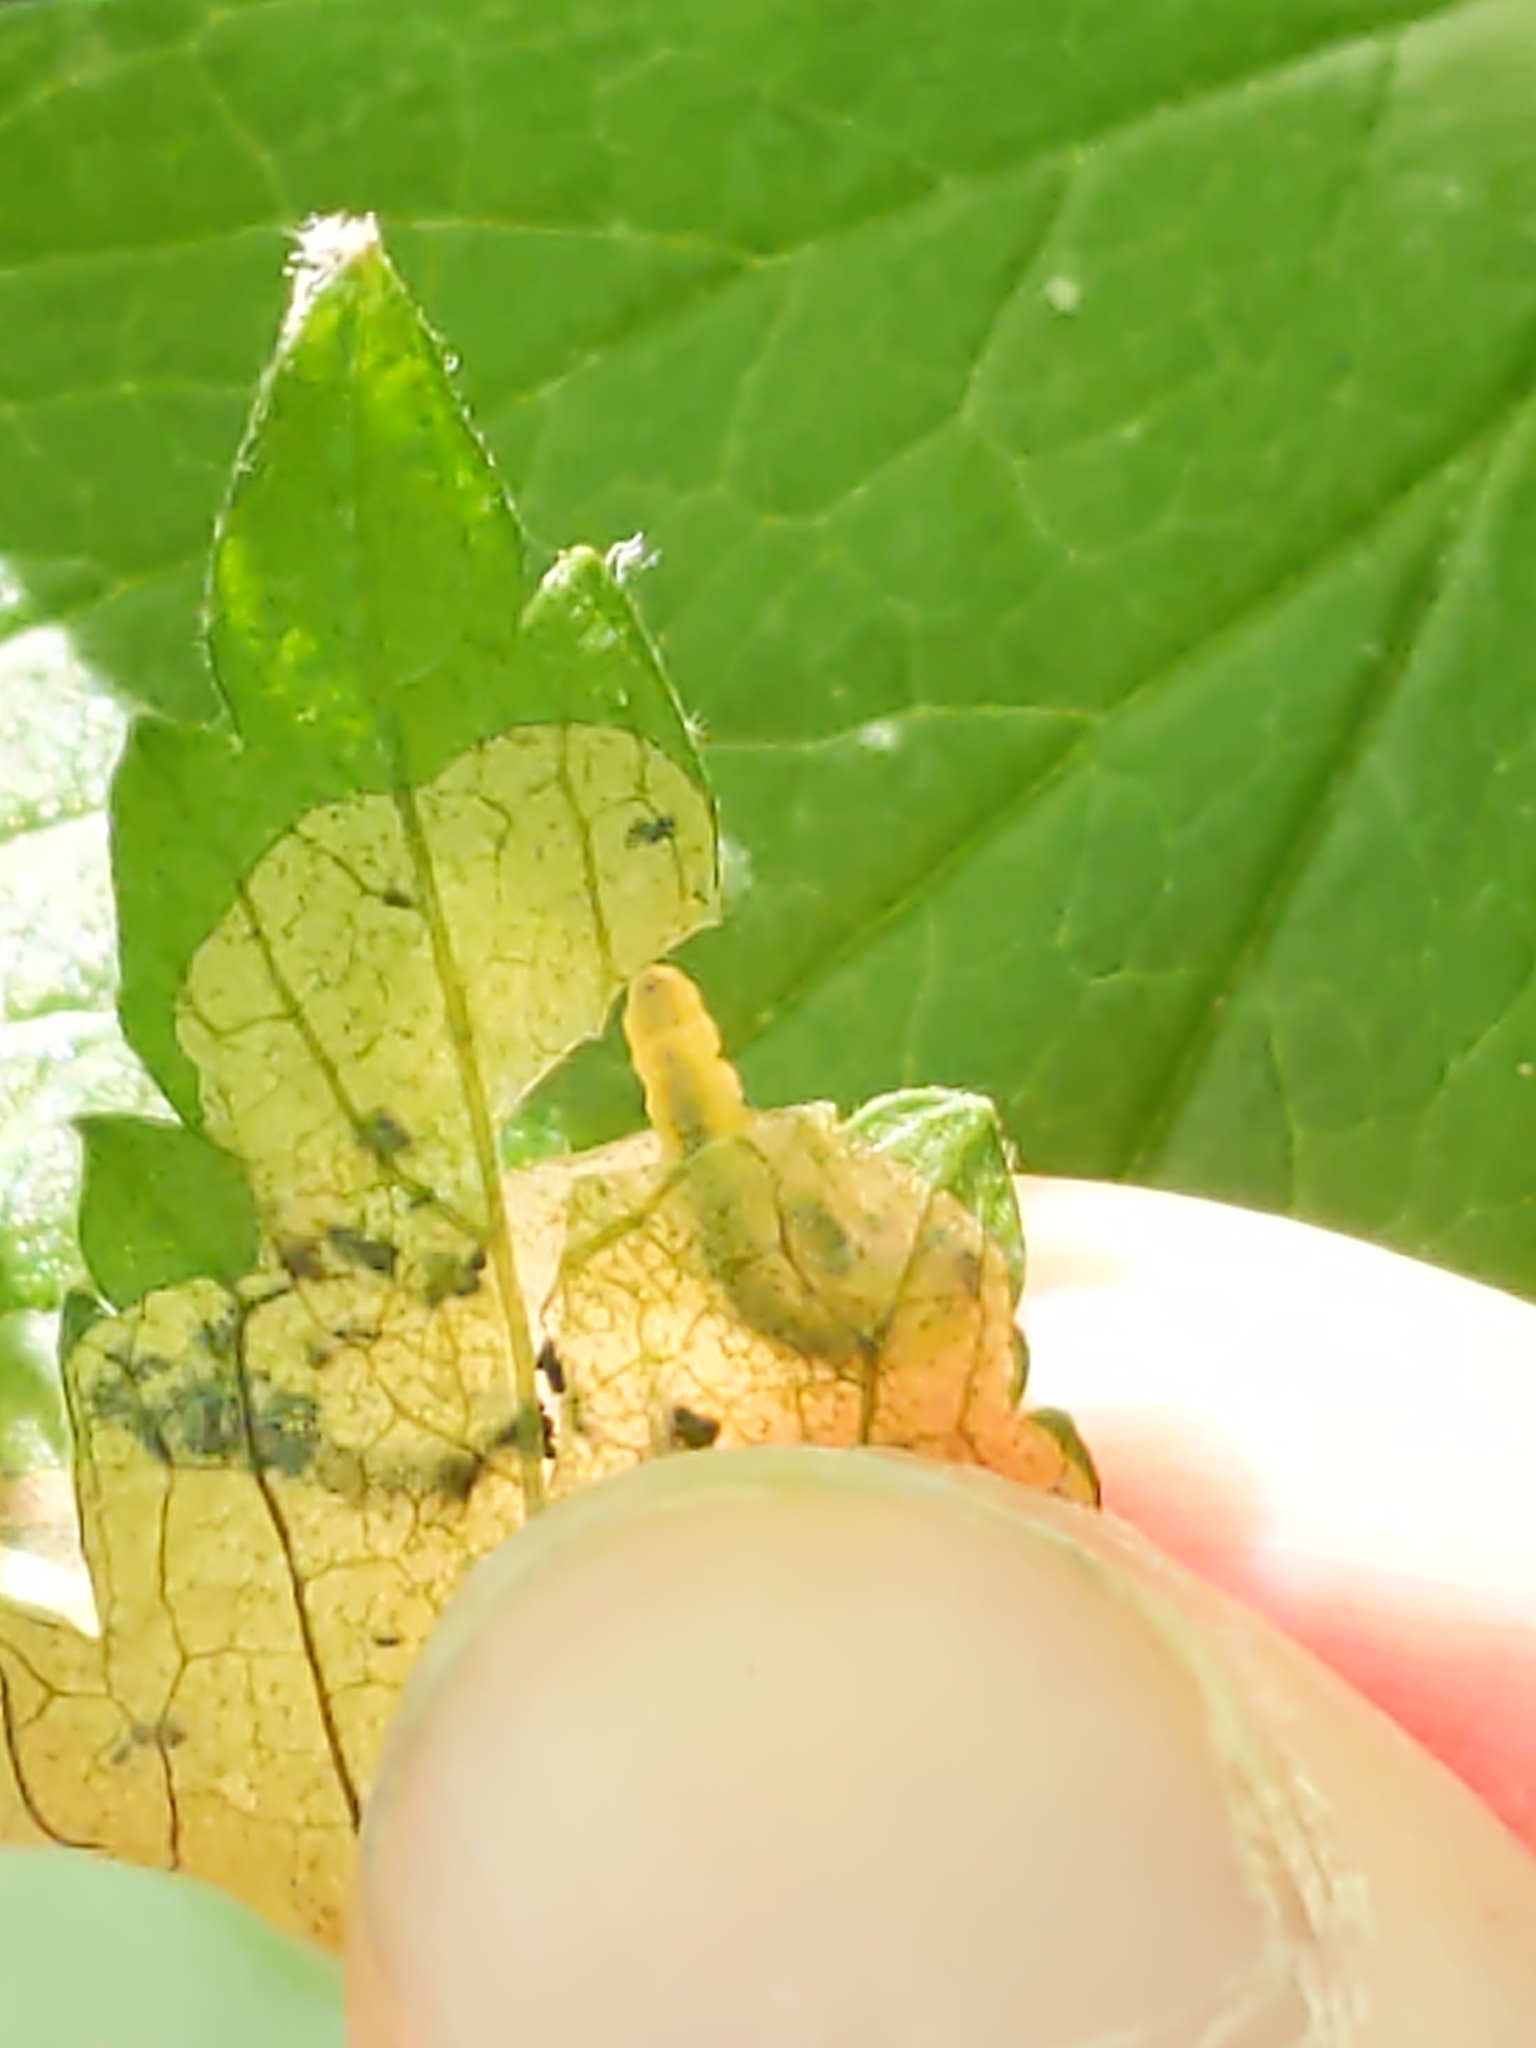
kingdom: Animalia
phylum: Arthropoda
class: Insecta
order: Hymenoptera
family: Tenthredinidae
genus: Metallus
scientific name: Metallus lanceolatus
